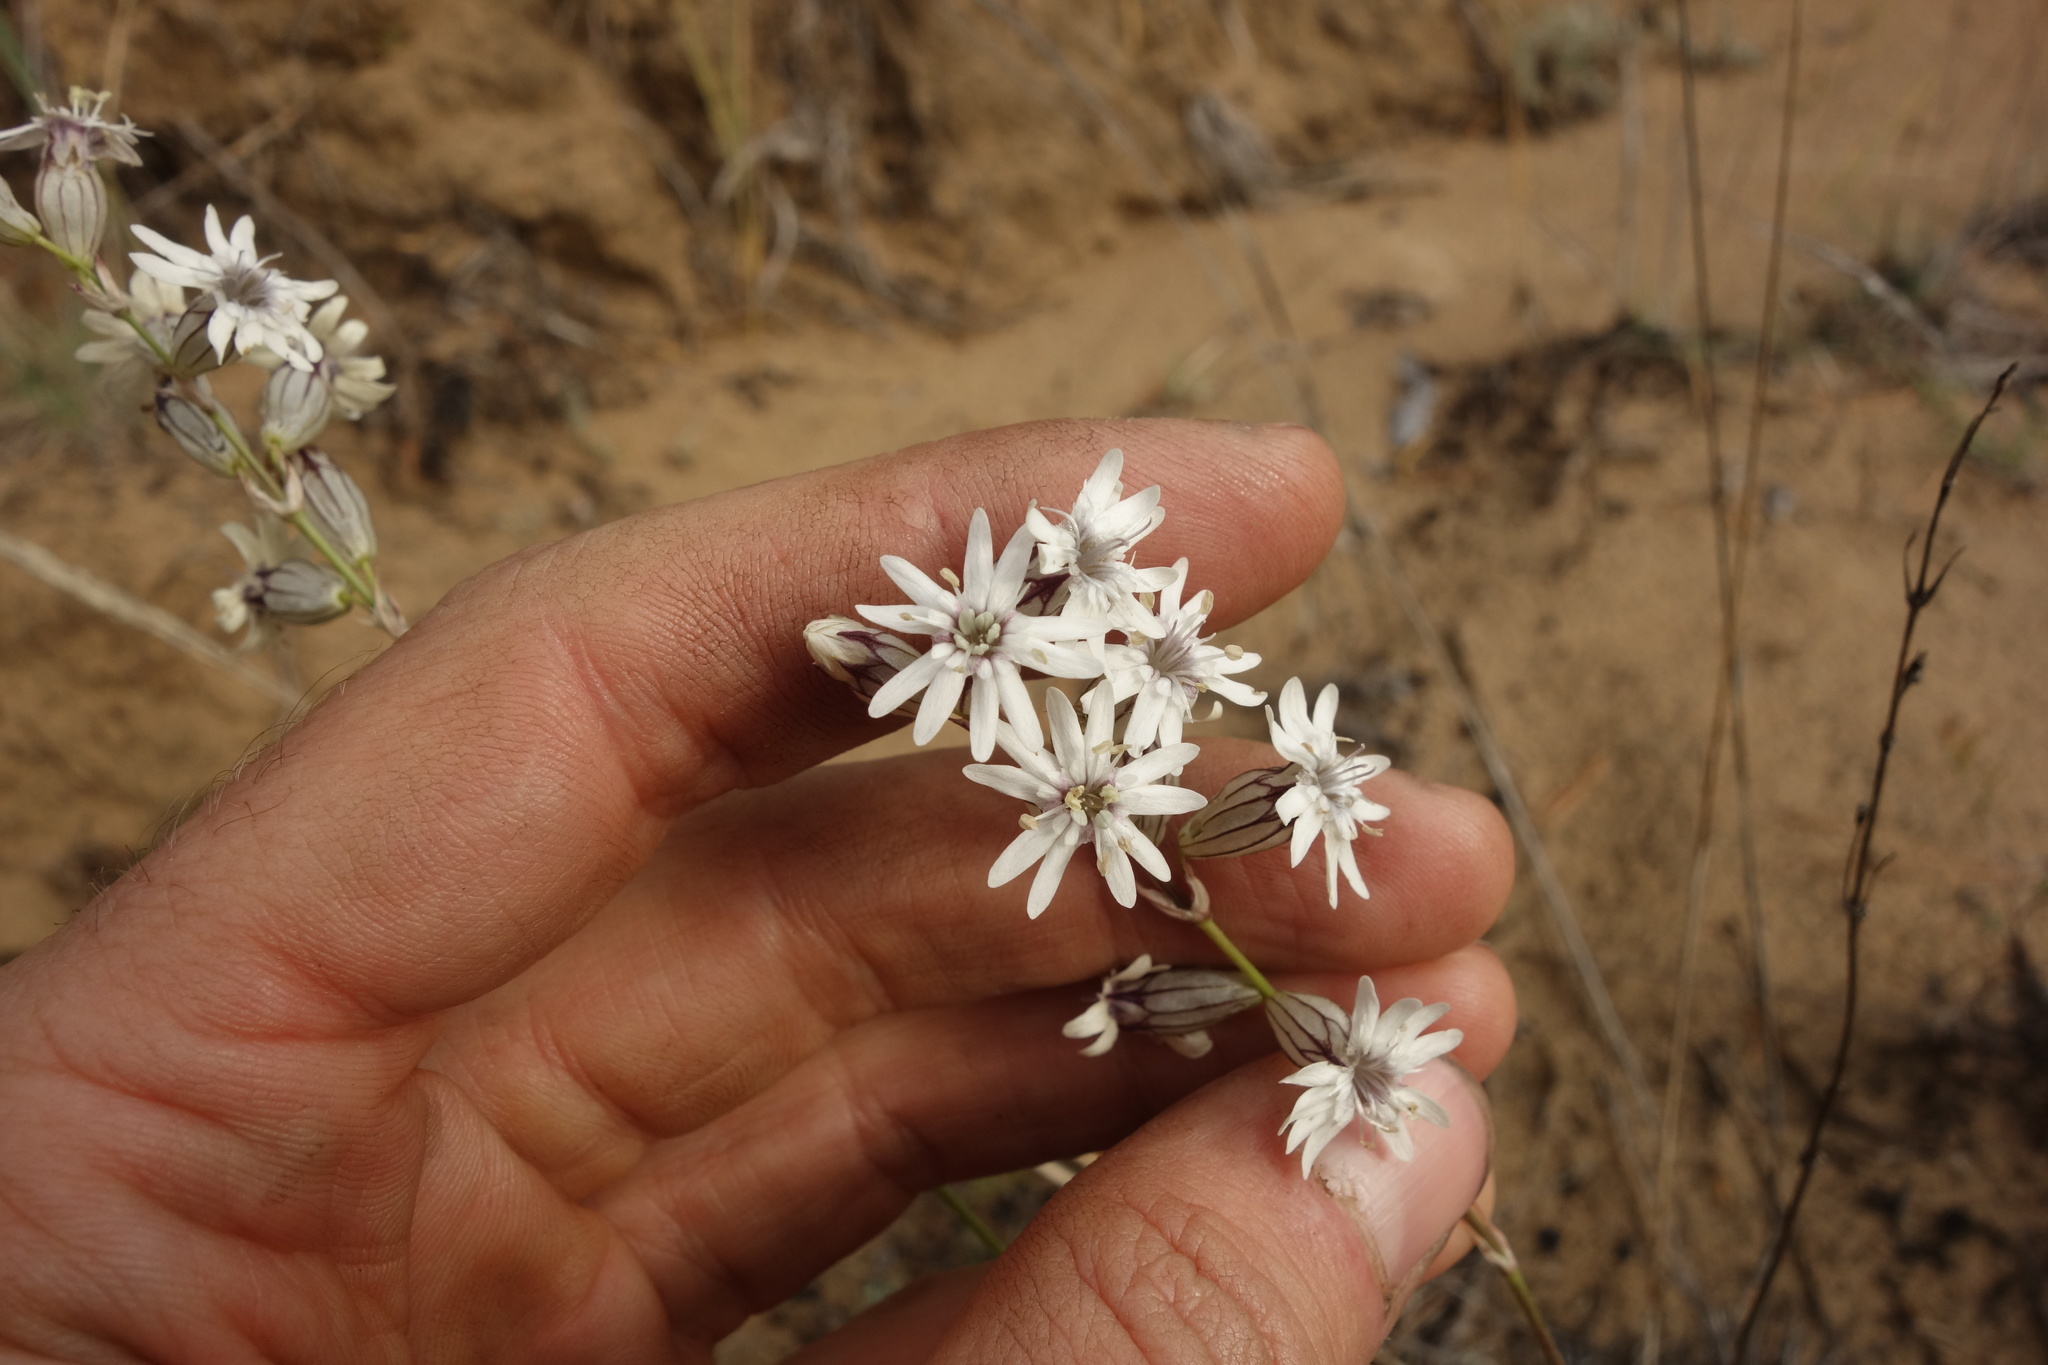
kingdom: Plantae
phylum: Tracheophyta
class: Magnoliopsida
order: Caryophyllales
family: Caryophyllaceae
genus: Silene
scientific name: Silene jeniseensis
